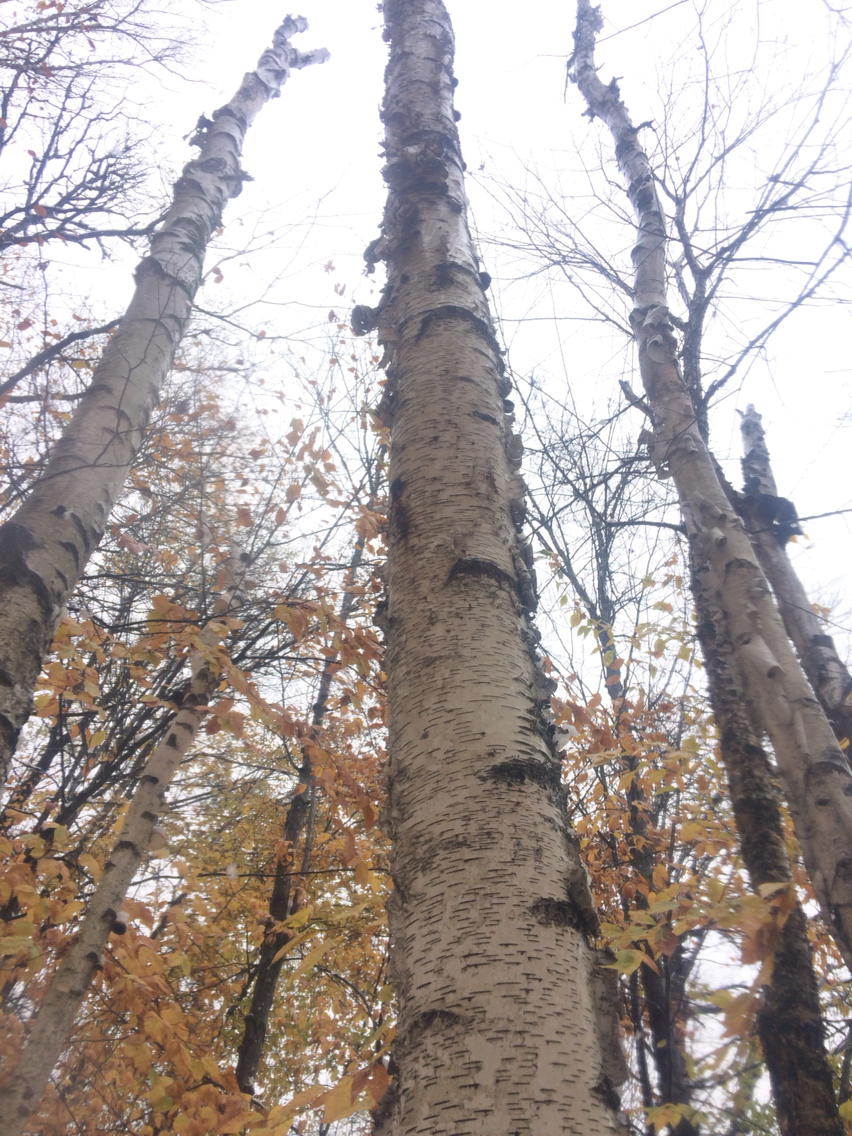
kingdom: Plantae
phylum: Tracheophyta
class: Magnoliopsida
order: Fagales
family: Betulaceae
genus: Betula
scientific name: Betula papyrifera
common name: Paper birch
